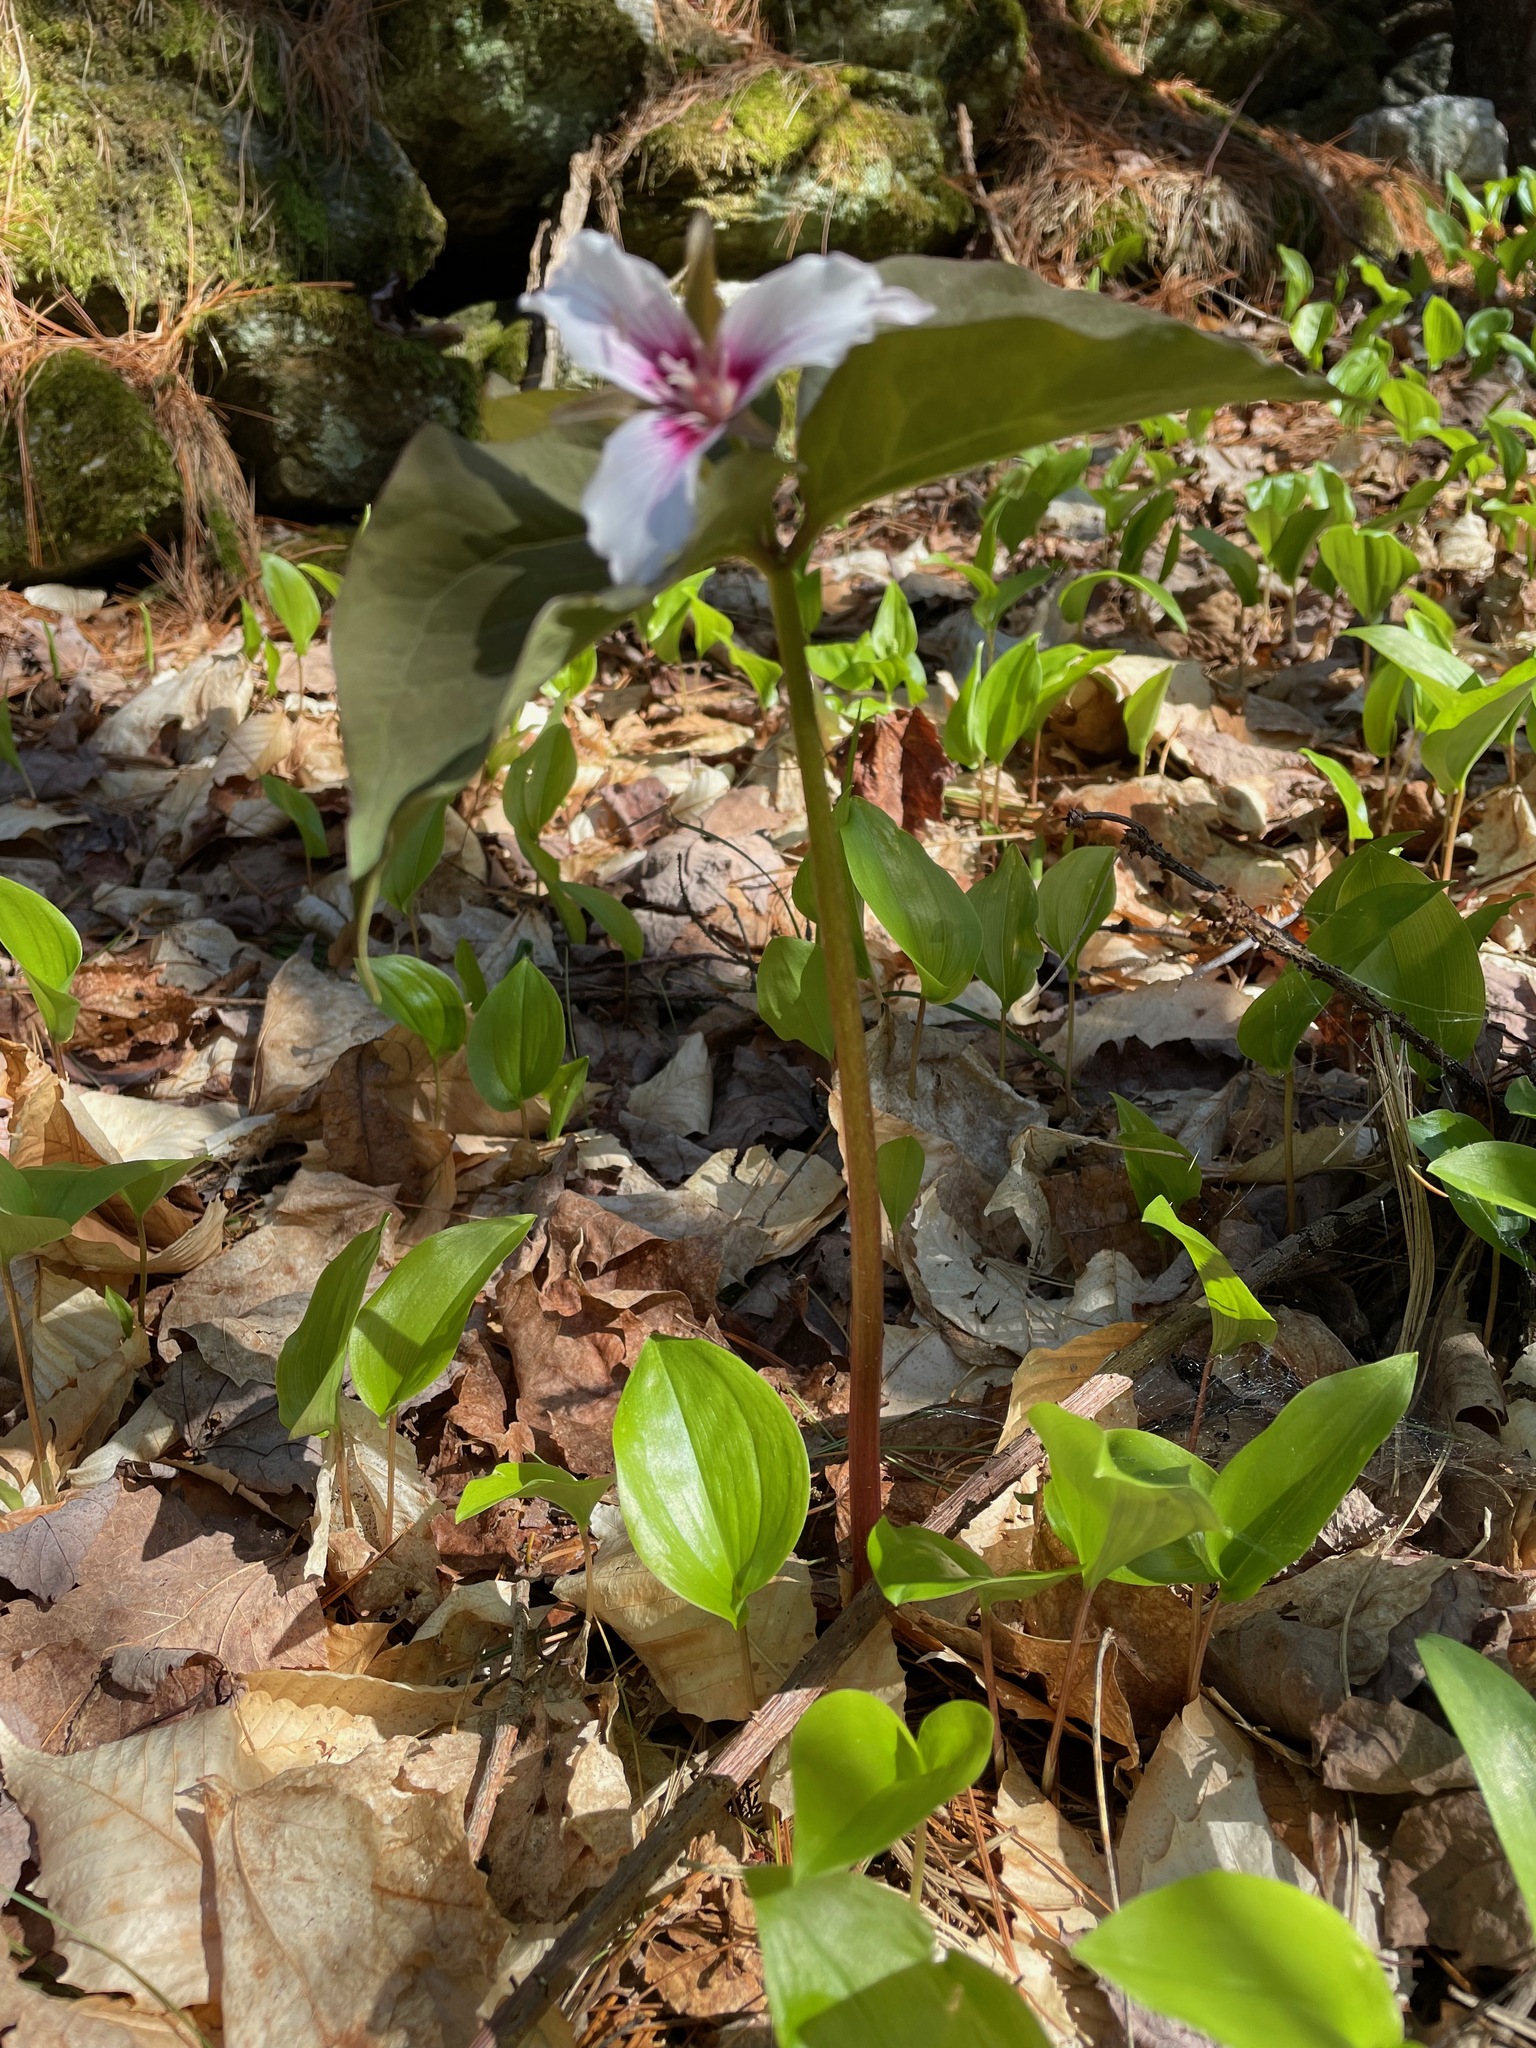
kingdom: Plantae
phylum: Tracheophyta
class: Liliopsida
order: Liliales
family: Melanthiaceae
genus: Trillium
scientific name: Trillium undulatum
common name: Paint trillium
